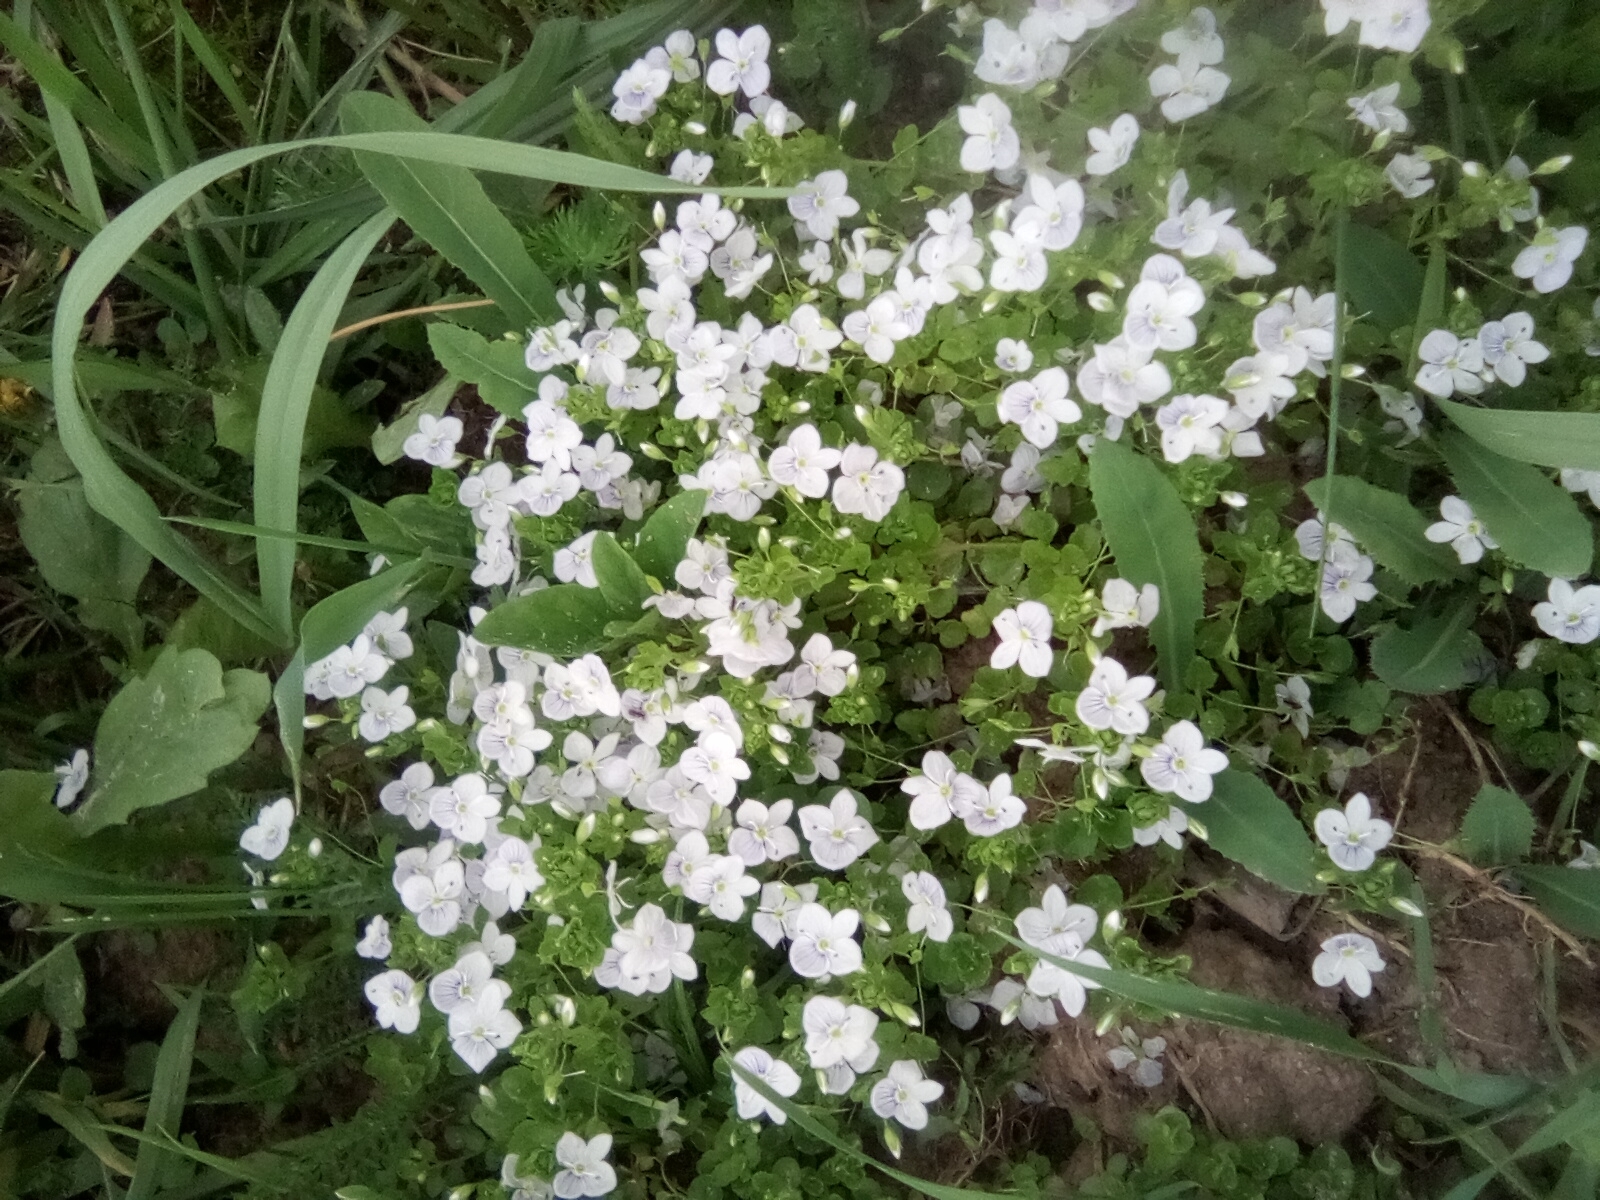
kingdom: Plantae
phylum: Tracheophyta
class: Magnoliopsida
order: Lamiales
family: Plantaginaceae
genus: Veronica
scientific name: Veronica filiformis
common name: Slender speedwell
